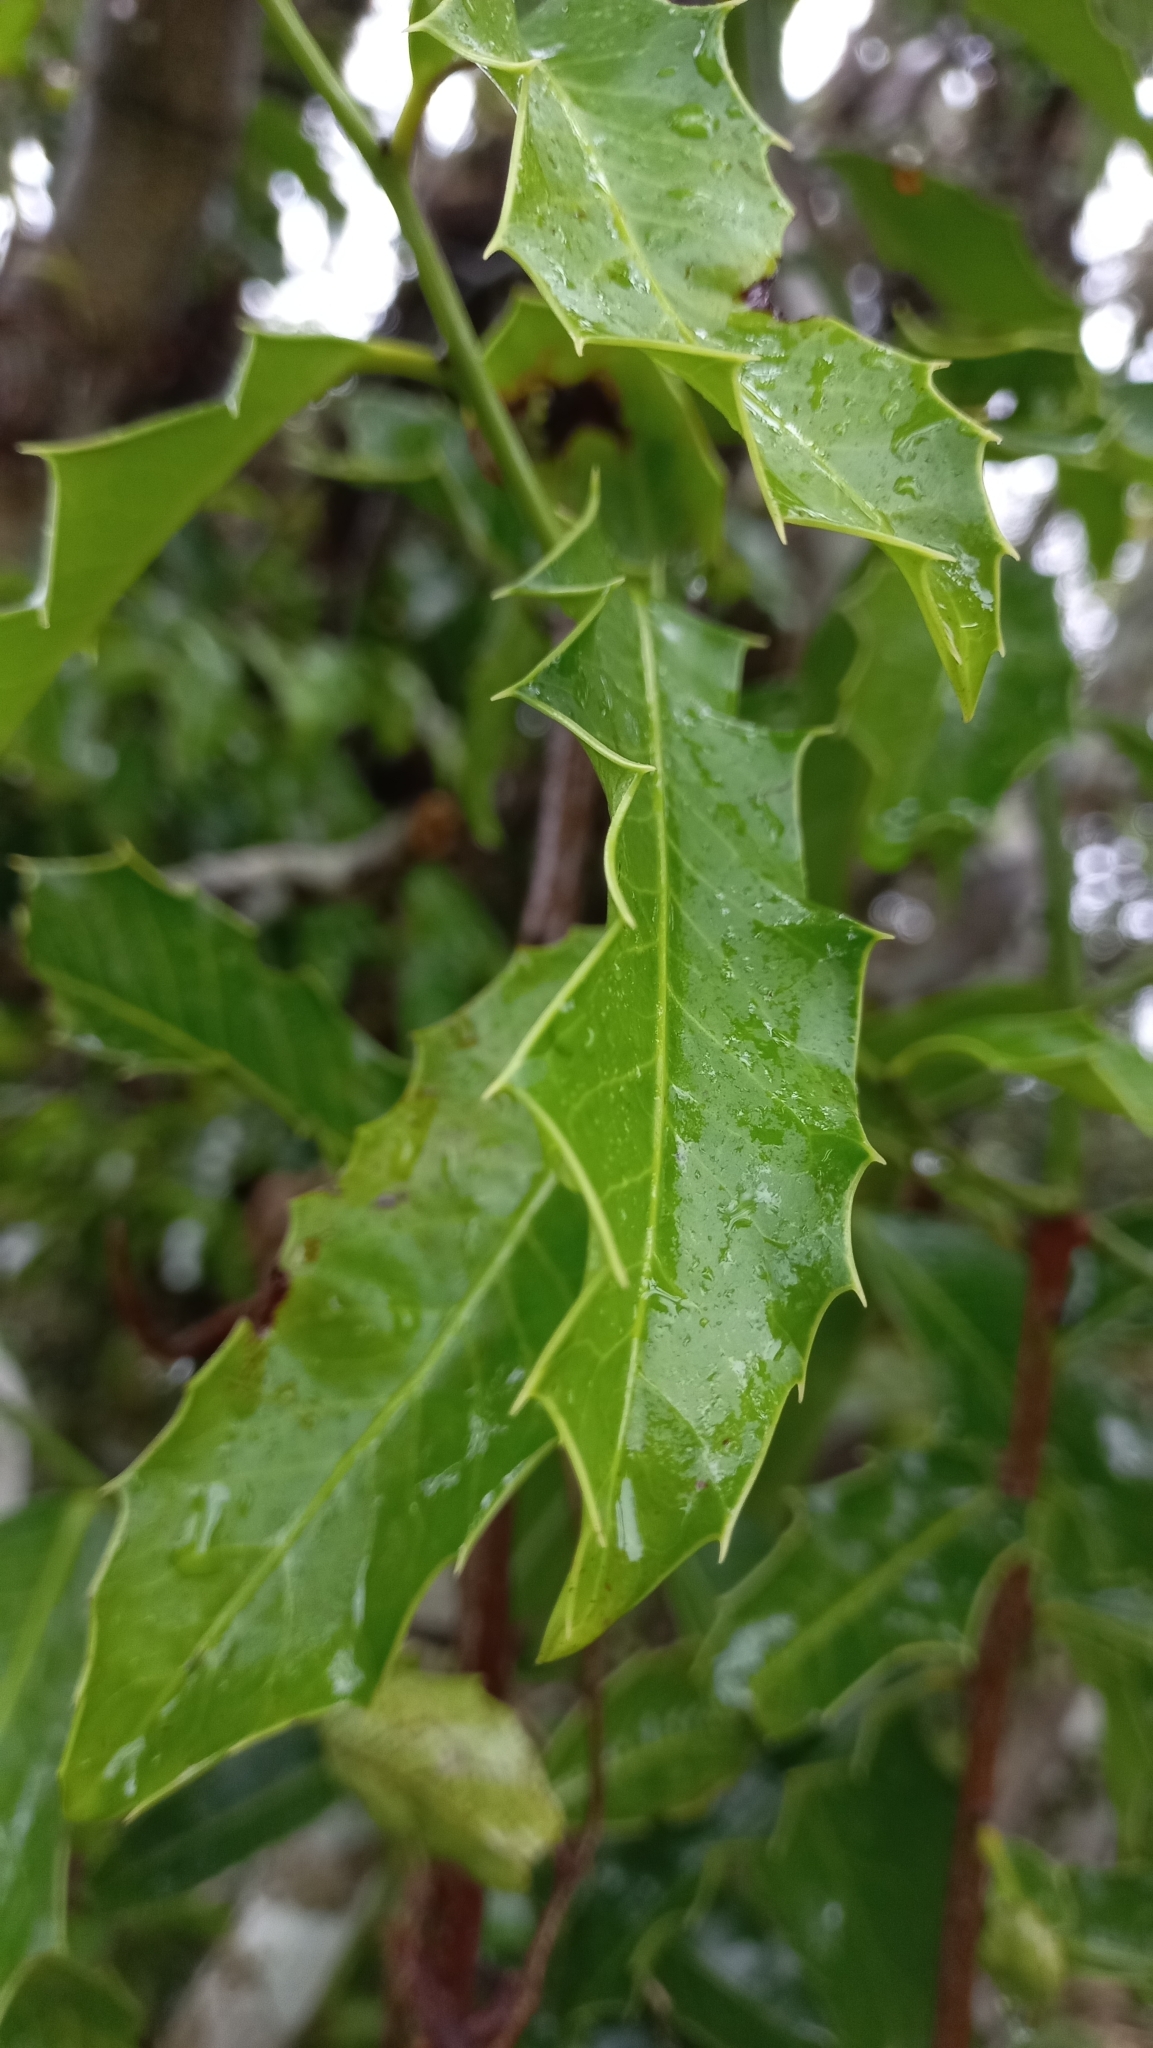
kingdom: Plantae
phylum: Tracheophyta
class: Magnoliopsida
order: Celastrales
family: Celastraceae
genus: Monteverdia
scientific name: Monteverdia
